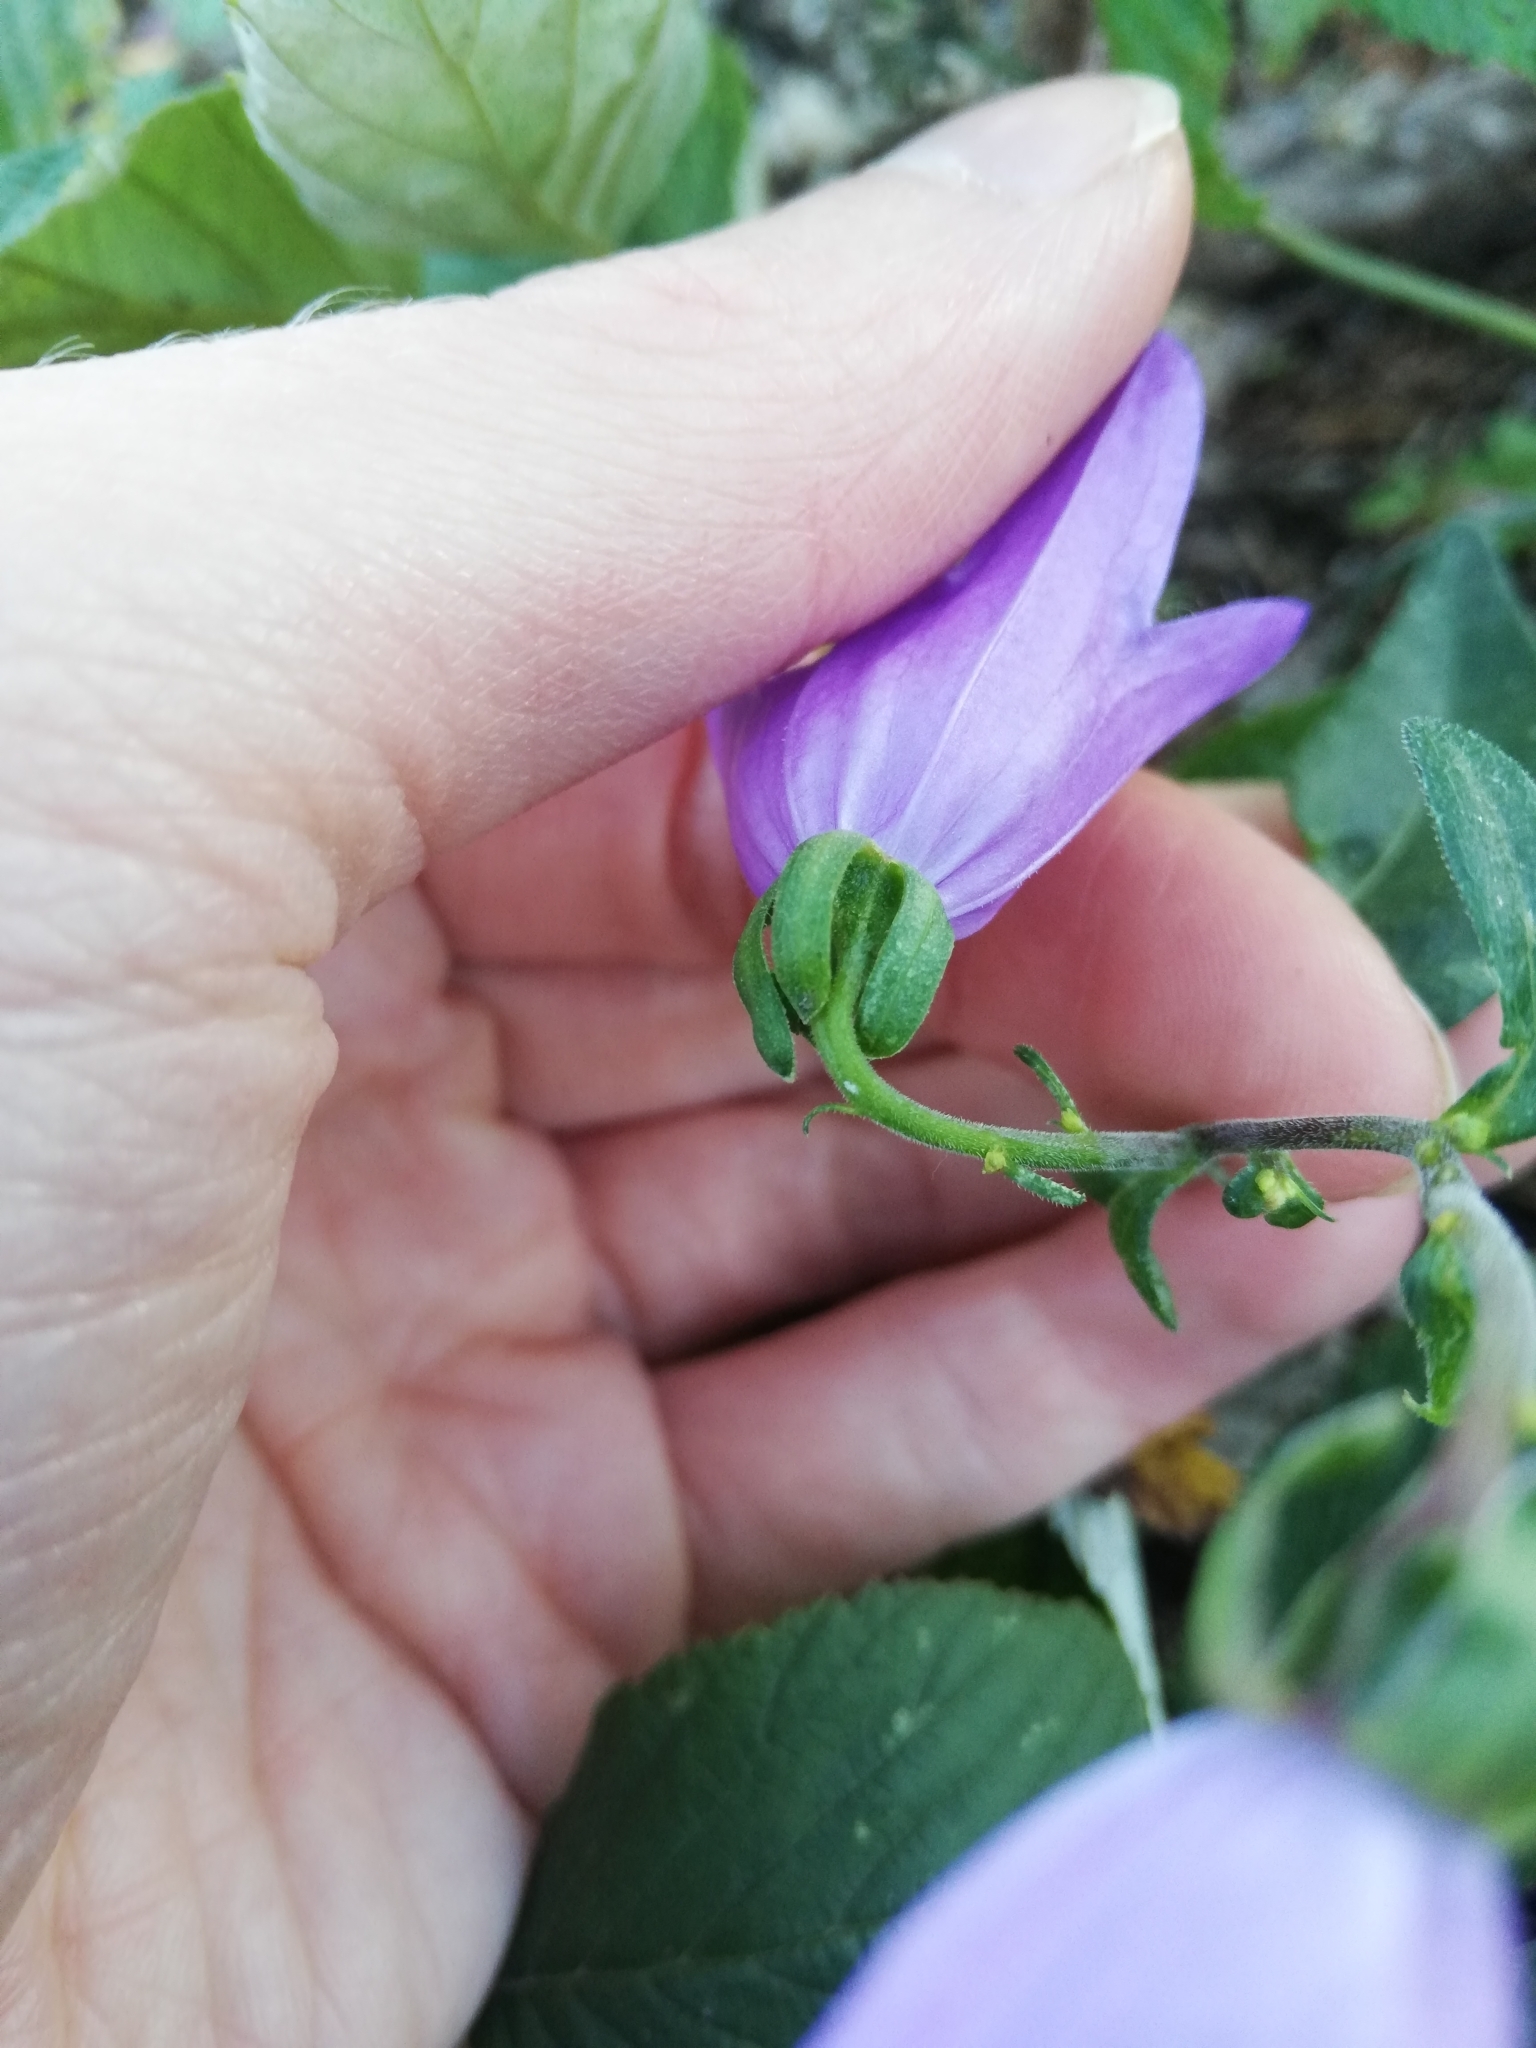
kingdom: Plantae
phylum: Tracheophyta
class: Magnoliopsida
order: Asterales
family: Campanulaceae
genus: Campanula
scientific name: Campanula rapunculoides
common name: Creeping bellflower
